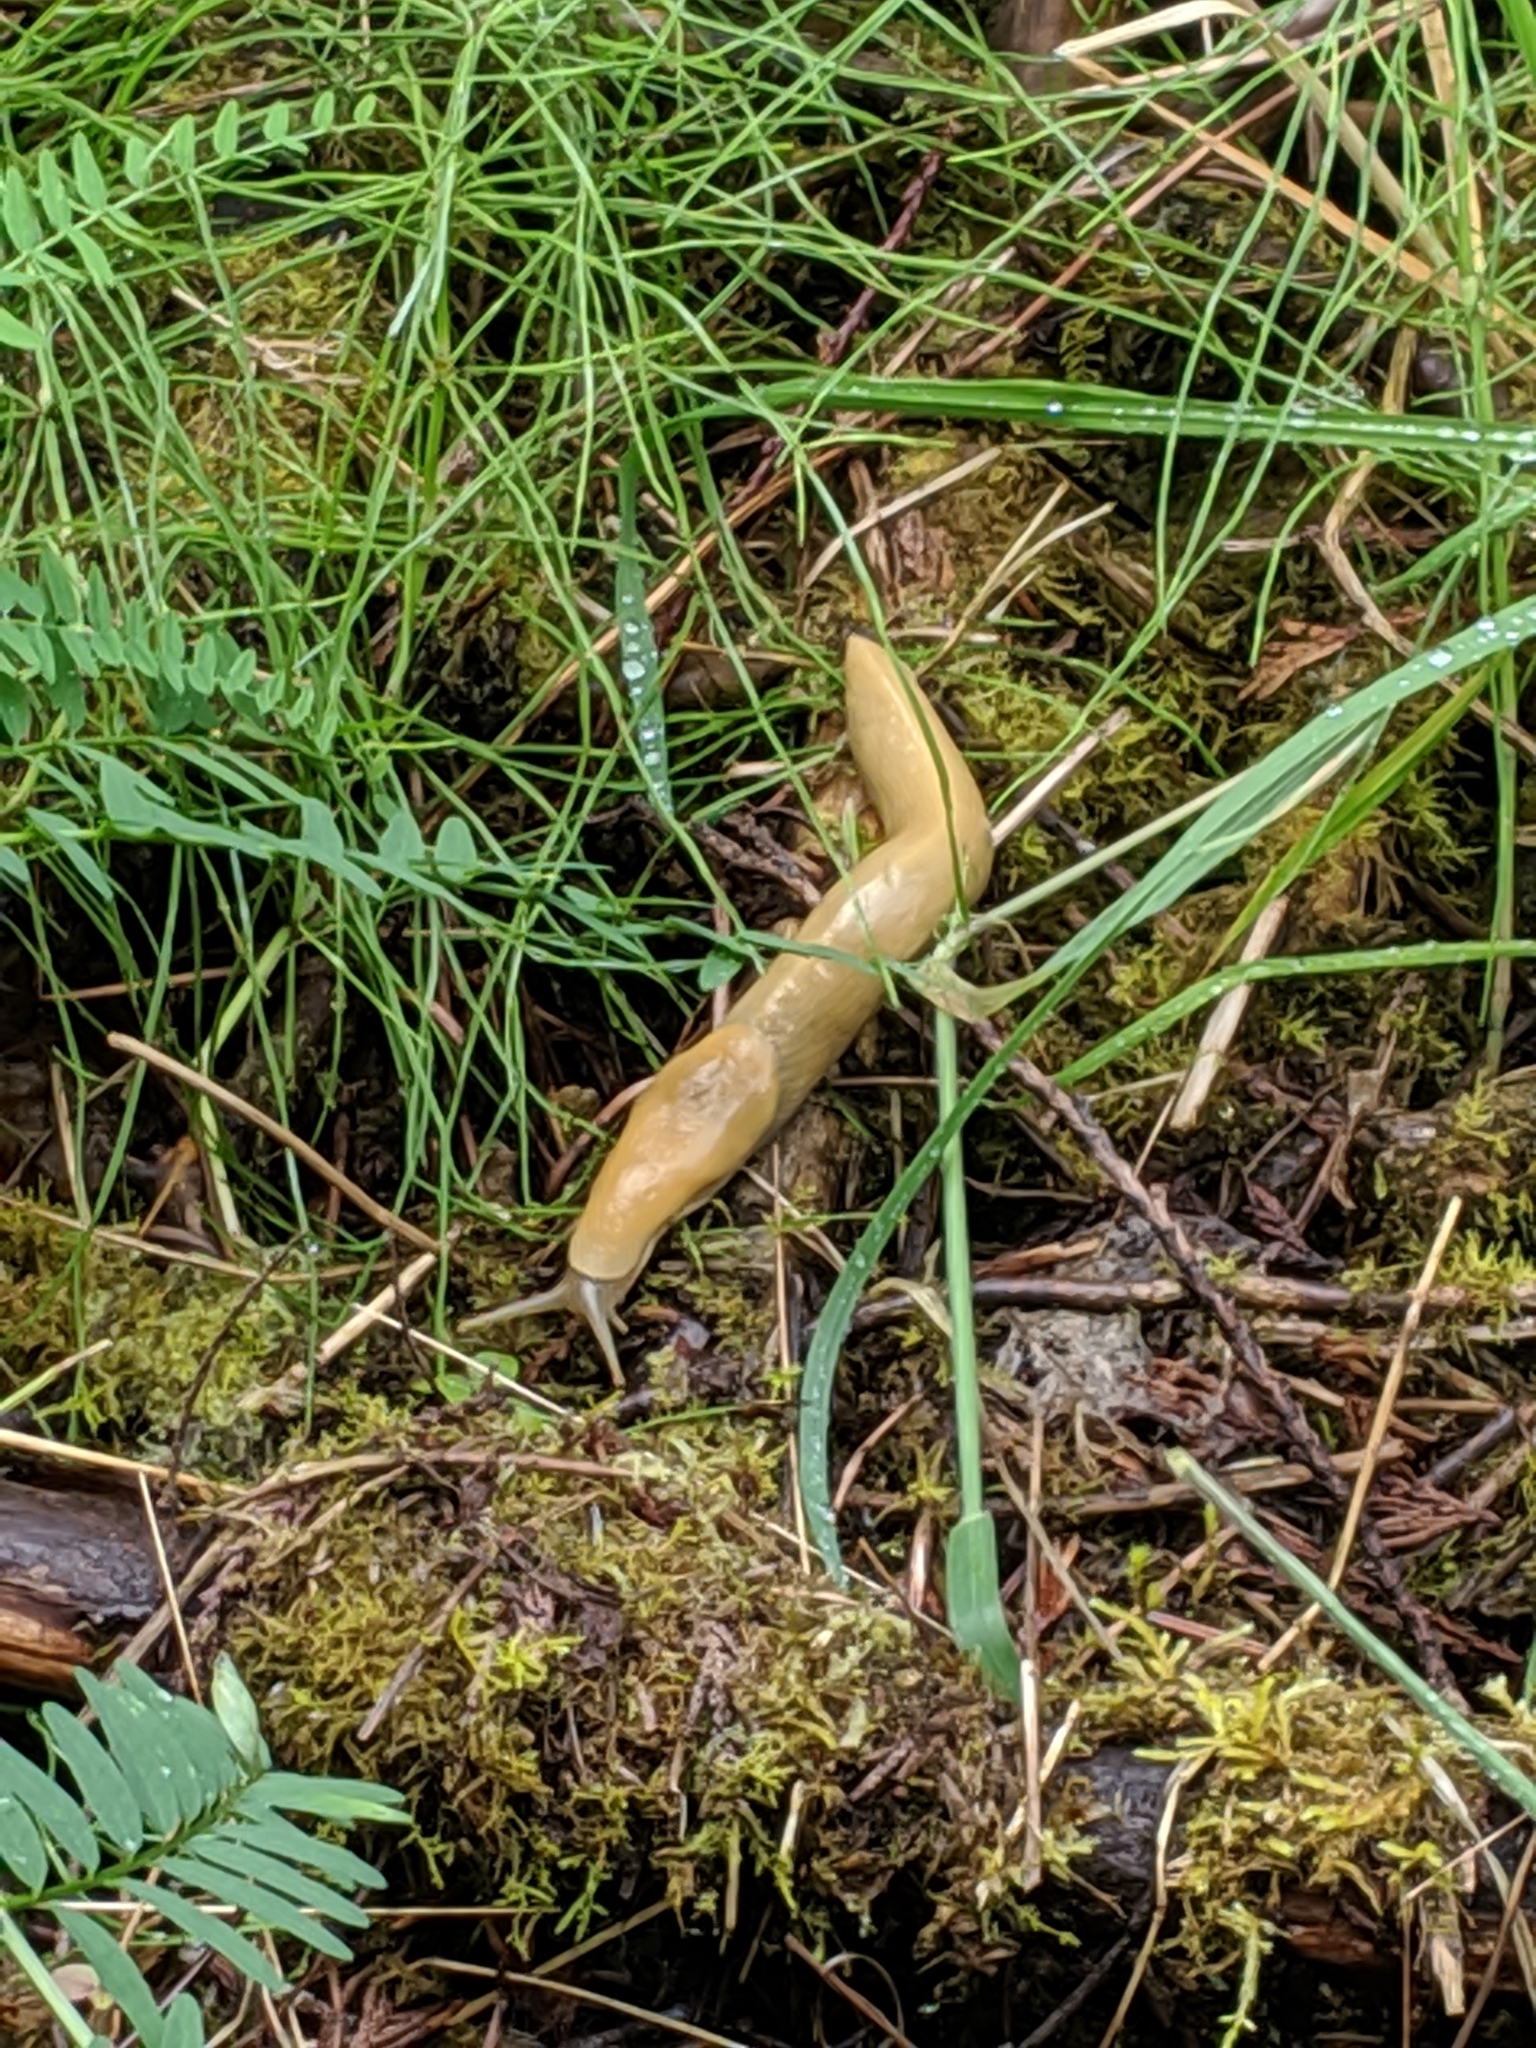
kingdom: Animalia
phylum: Mollusca
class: Gastropoda
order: Stylommatophora
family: Ariolimacidae
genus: Ariolimax
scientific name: Ariolimax columbianus
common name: Pacific banana slug
